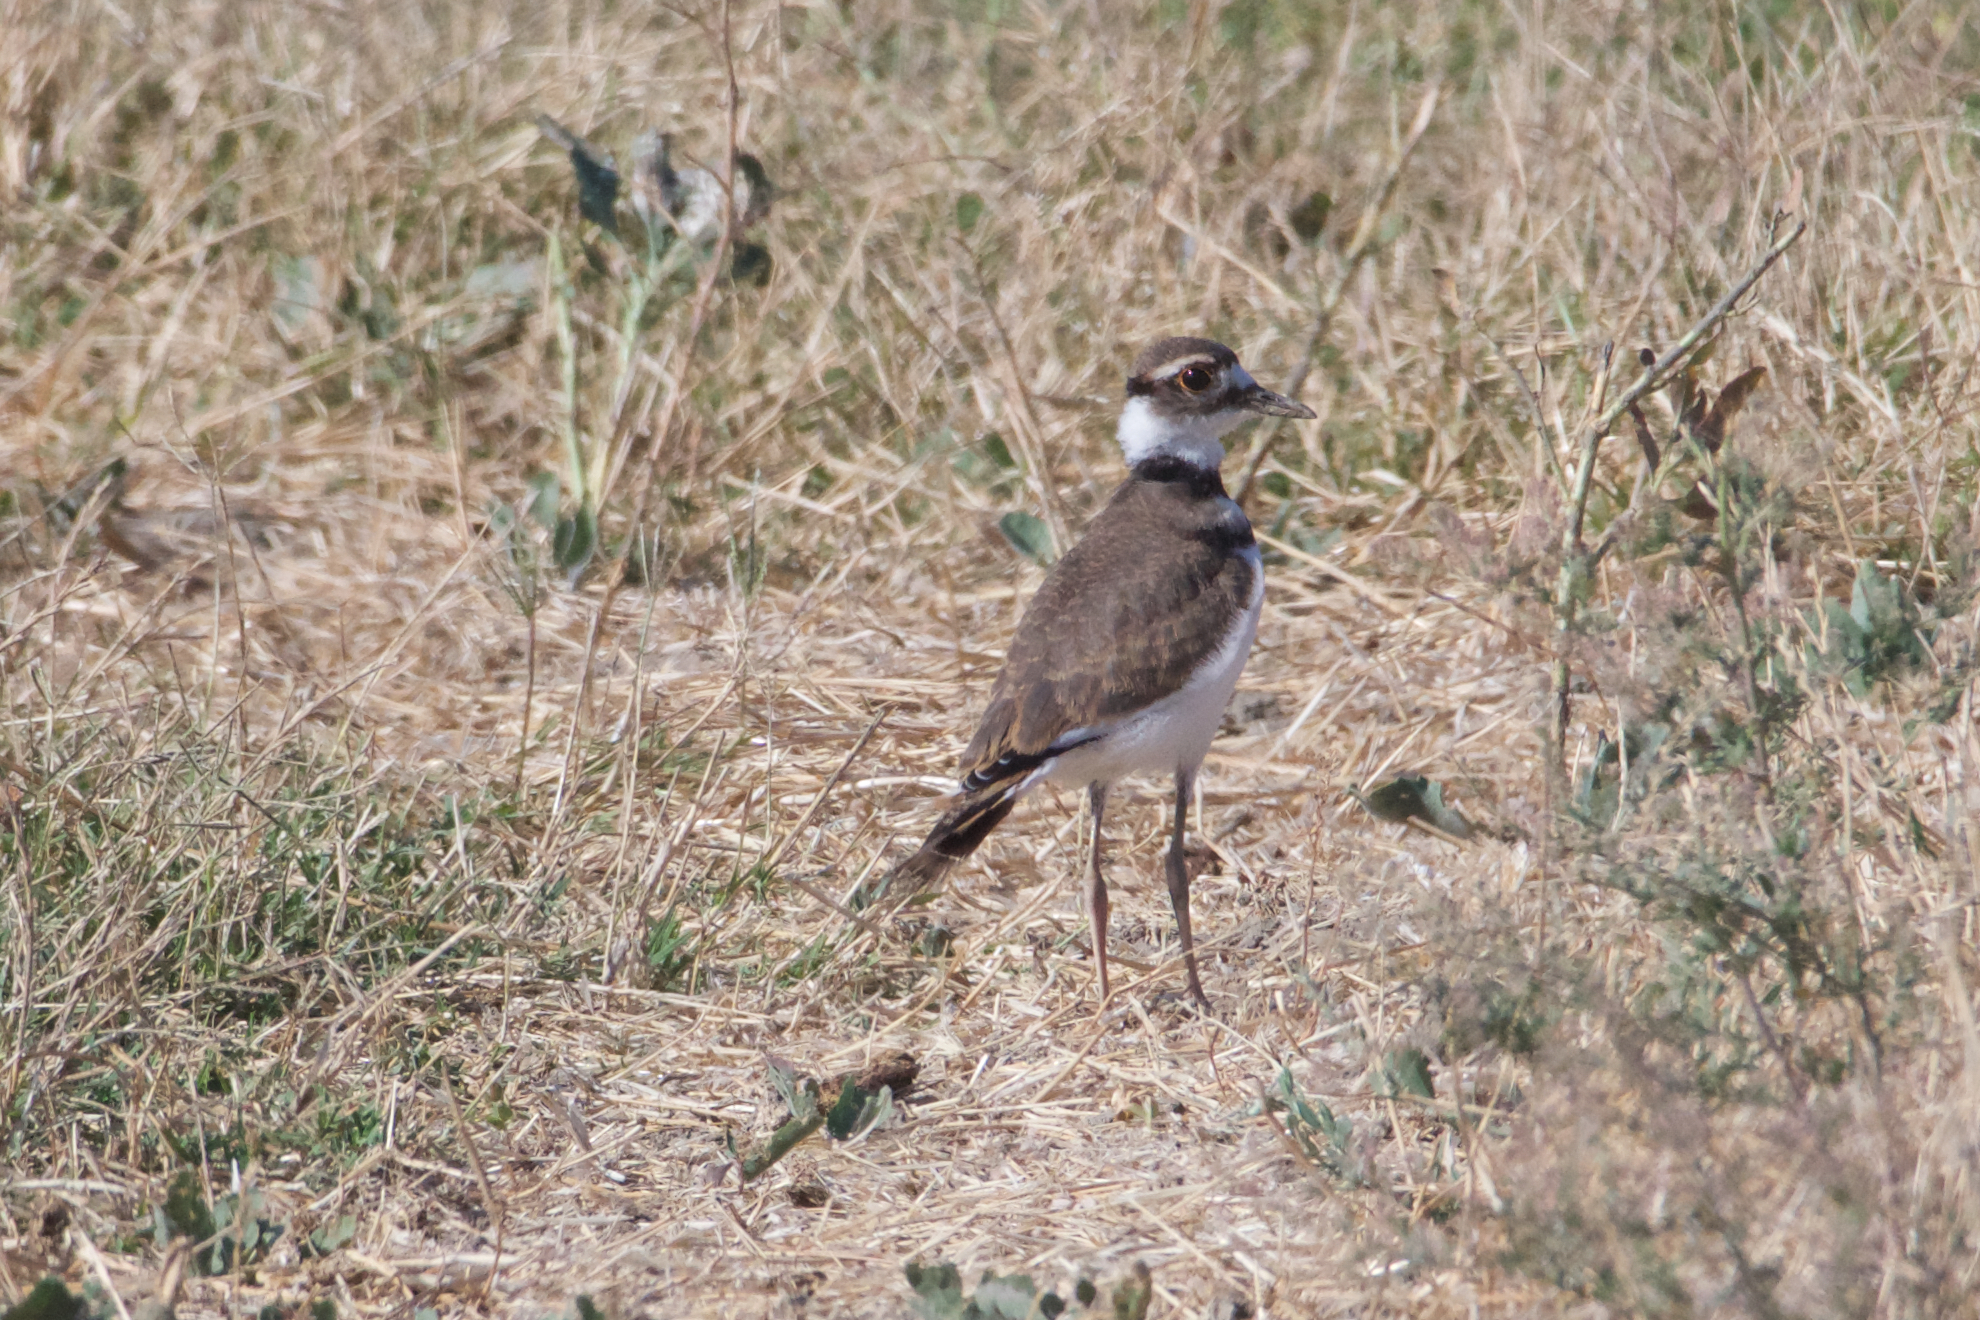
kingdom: Animalia
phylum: Chordata
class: Aves
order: Charadriiformes
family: Charadriidae
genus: Charadrius
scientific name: Charadrius vociferus
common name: Killdeer
